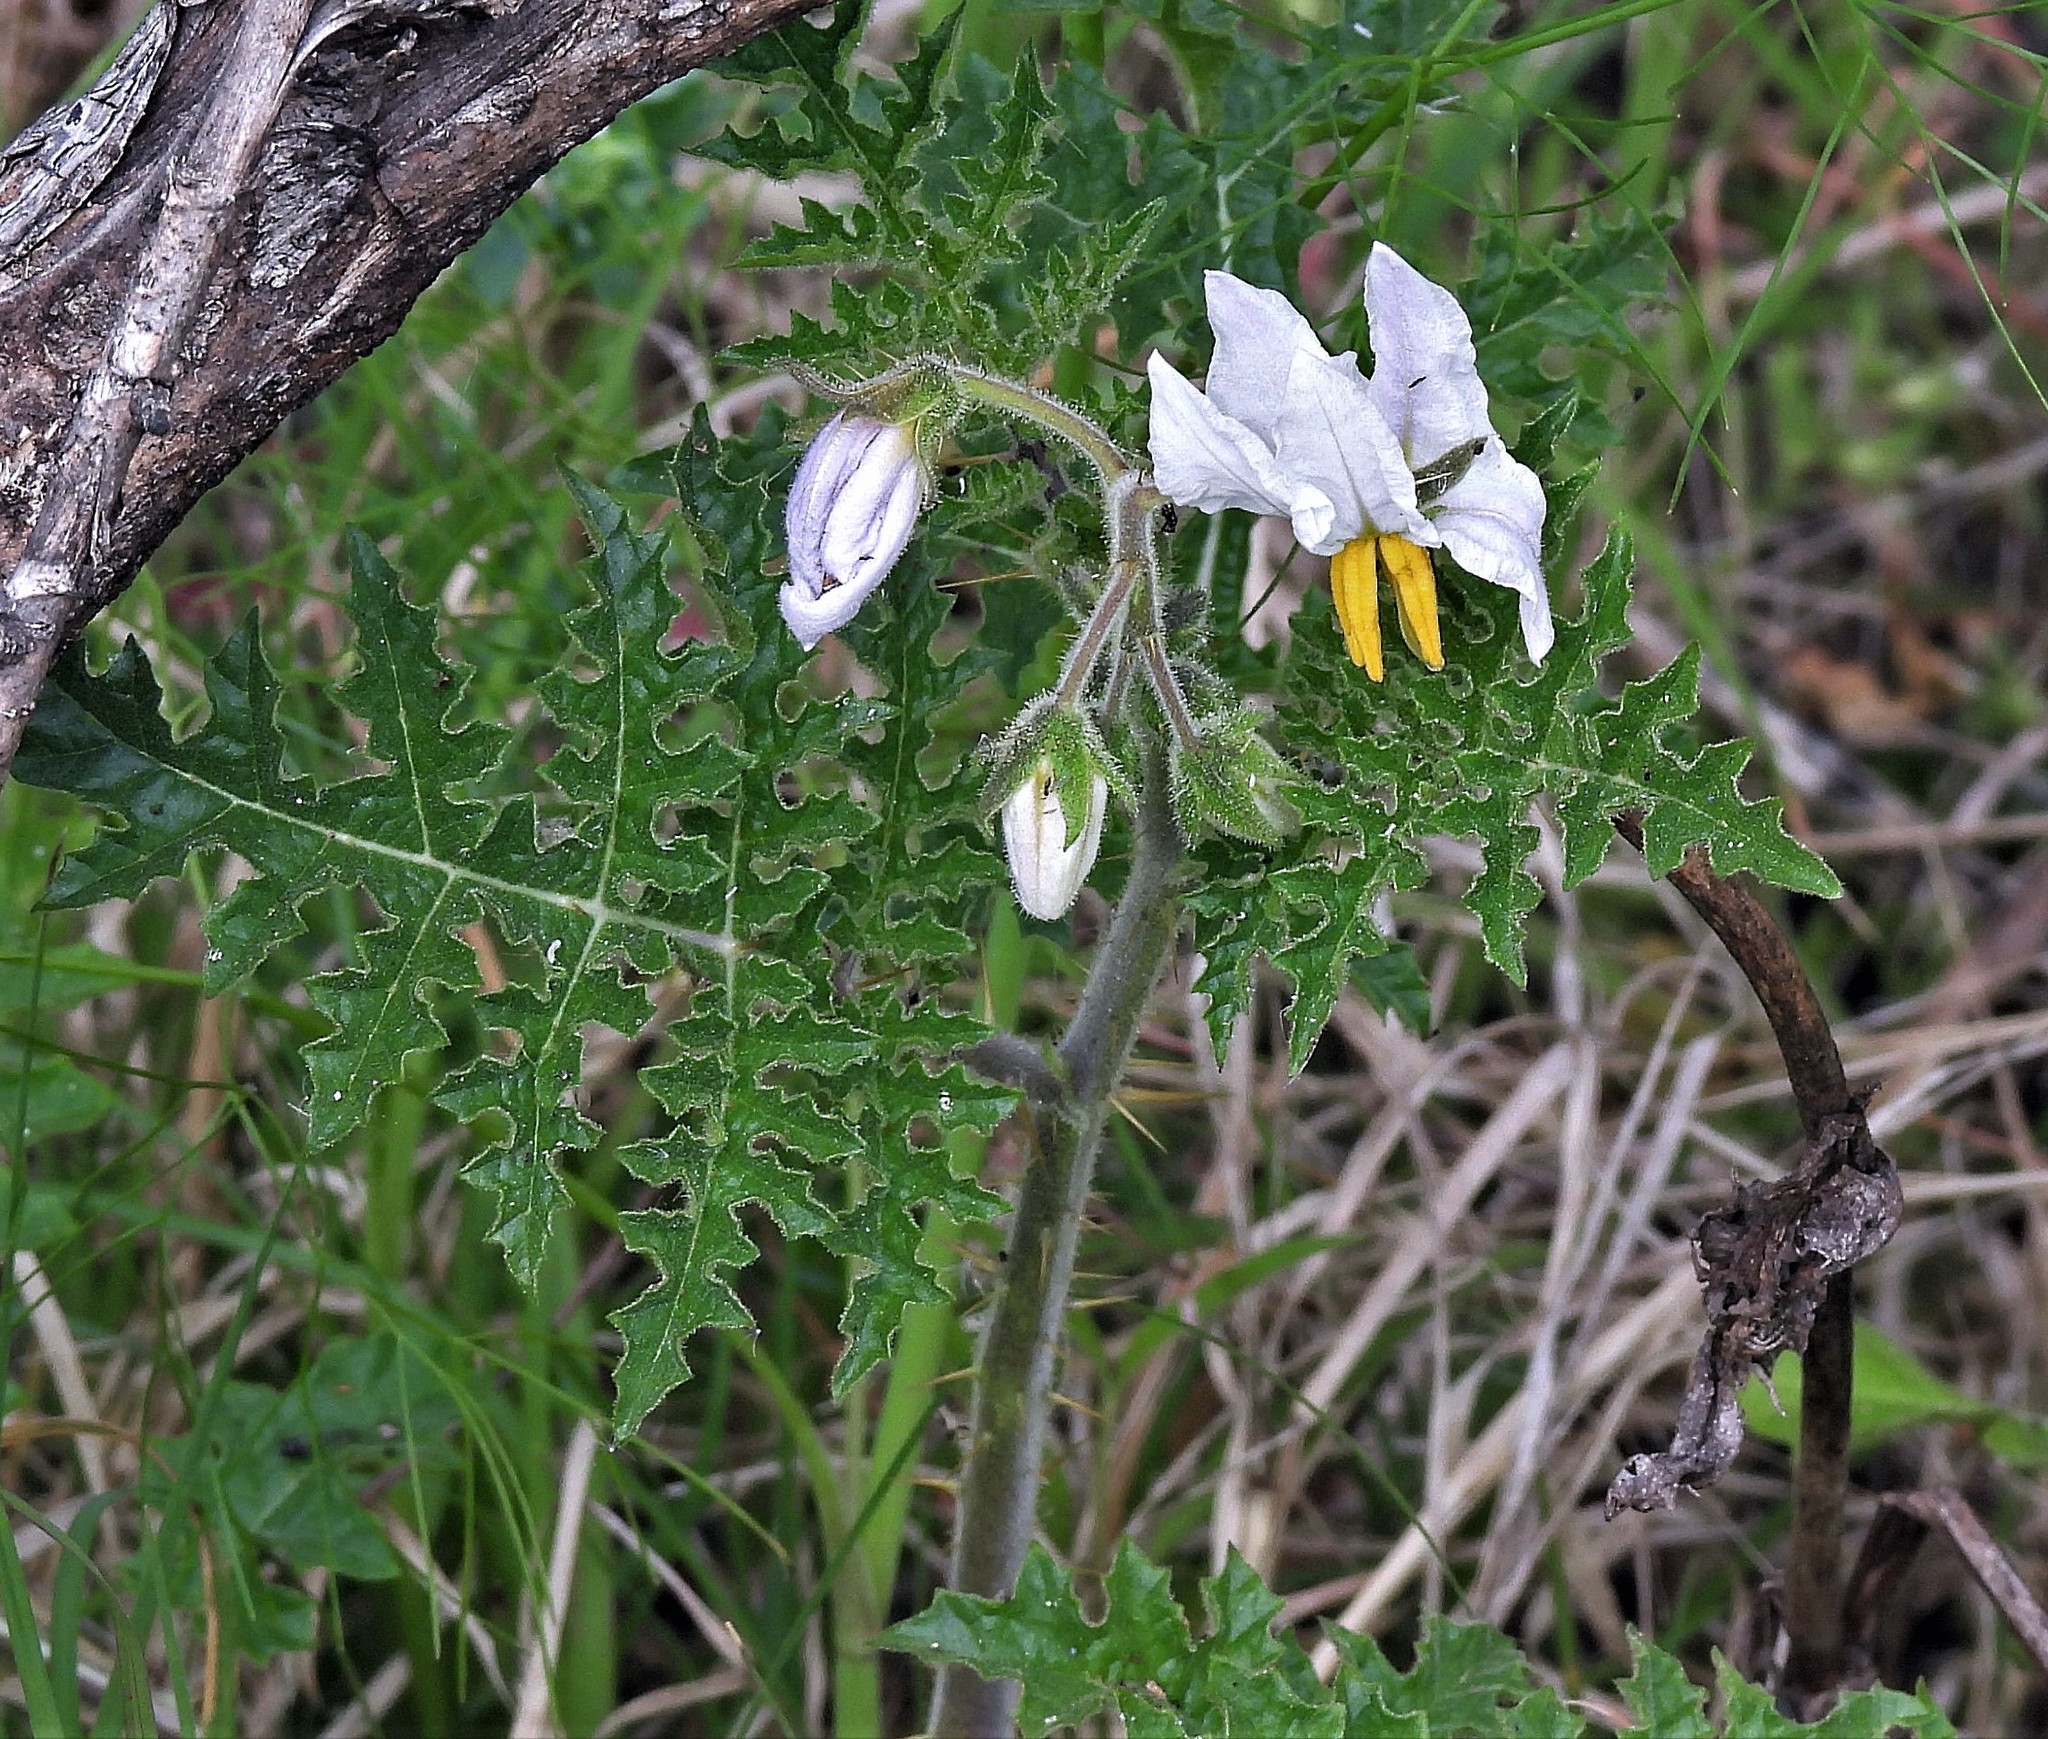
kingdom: Plantae
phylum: Tracheophyta
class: Magnoliopsida
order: Solanales
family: Solanaceae
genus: Solanum
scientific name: Solanum sisymbriifolium
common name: Red buffalo-bur
